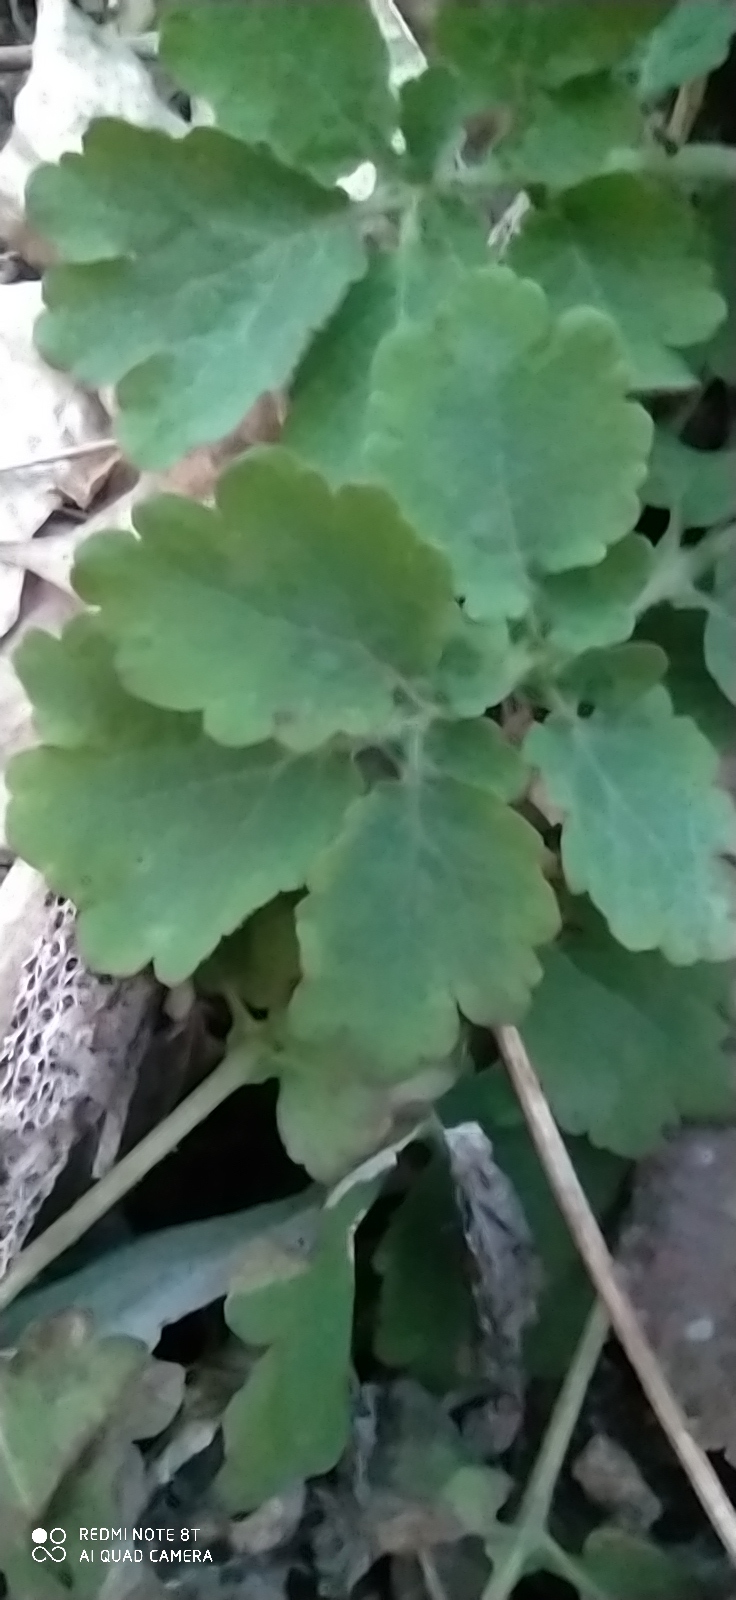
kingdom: Plantae
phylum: Tracheophyta
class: Magnoliopsida
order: Ranunculales
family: Papaveraceae
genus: Chelidonium
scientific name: Chelidonium majus
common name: Greater celandine
